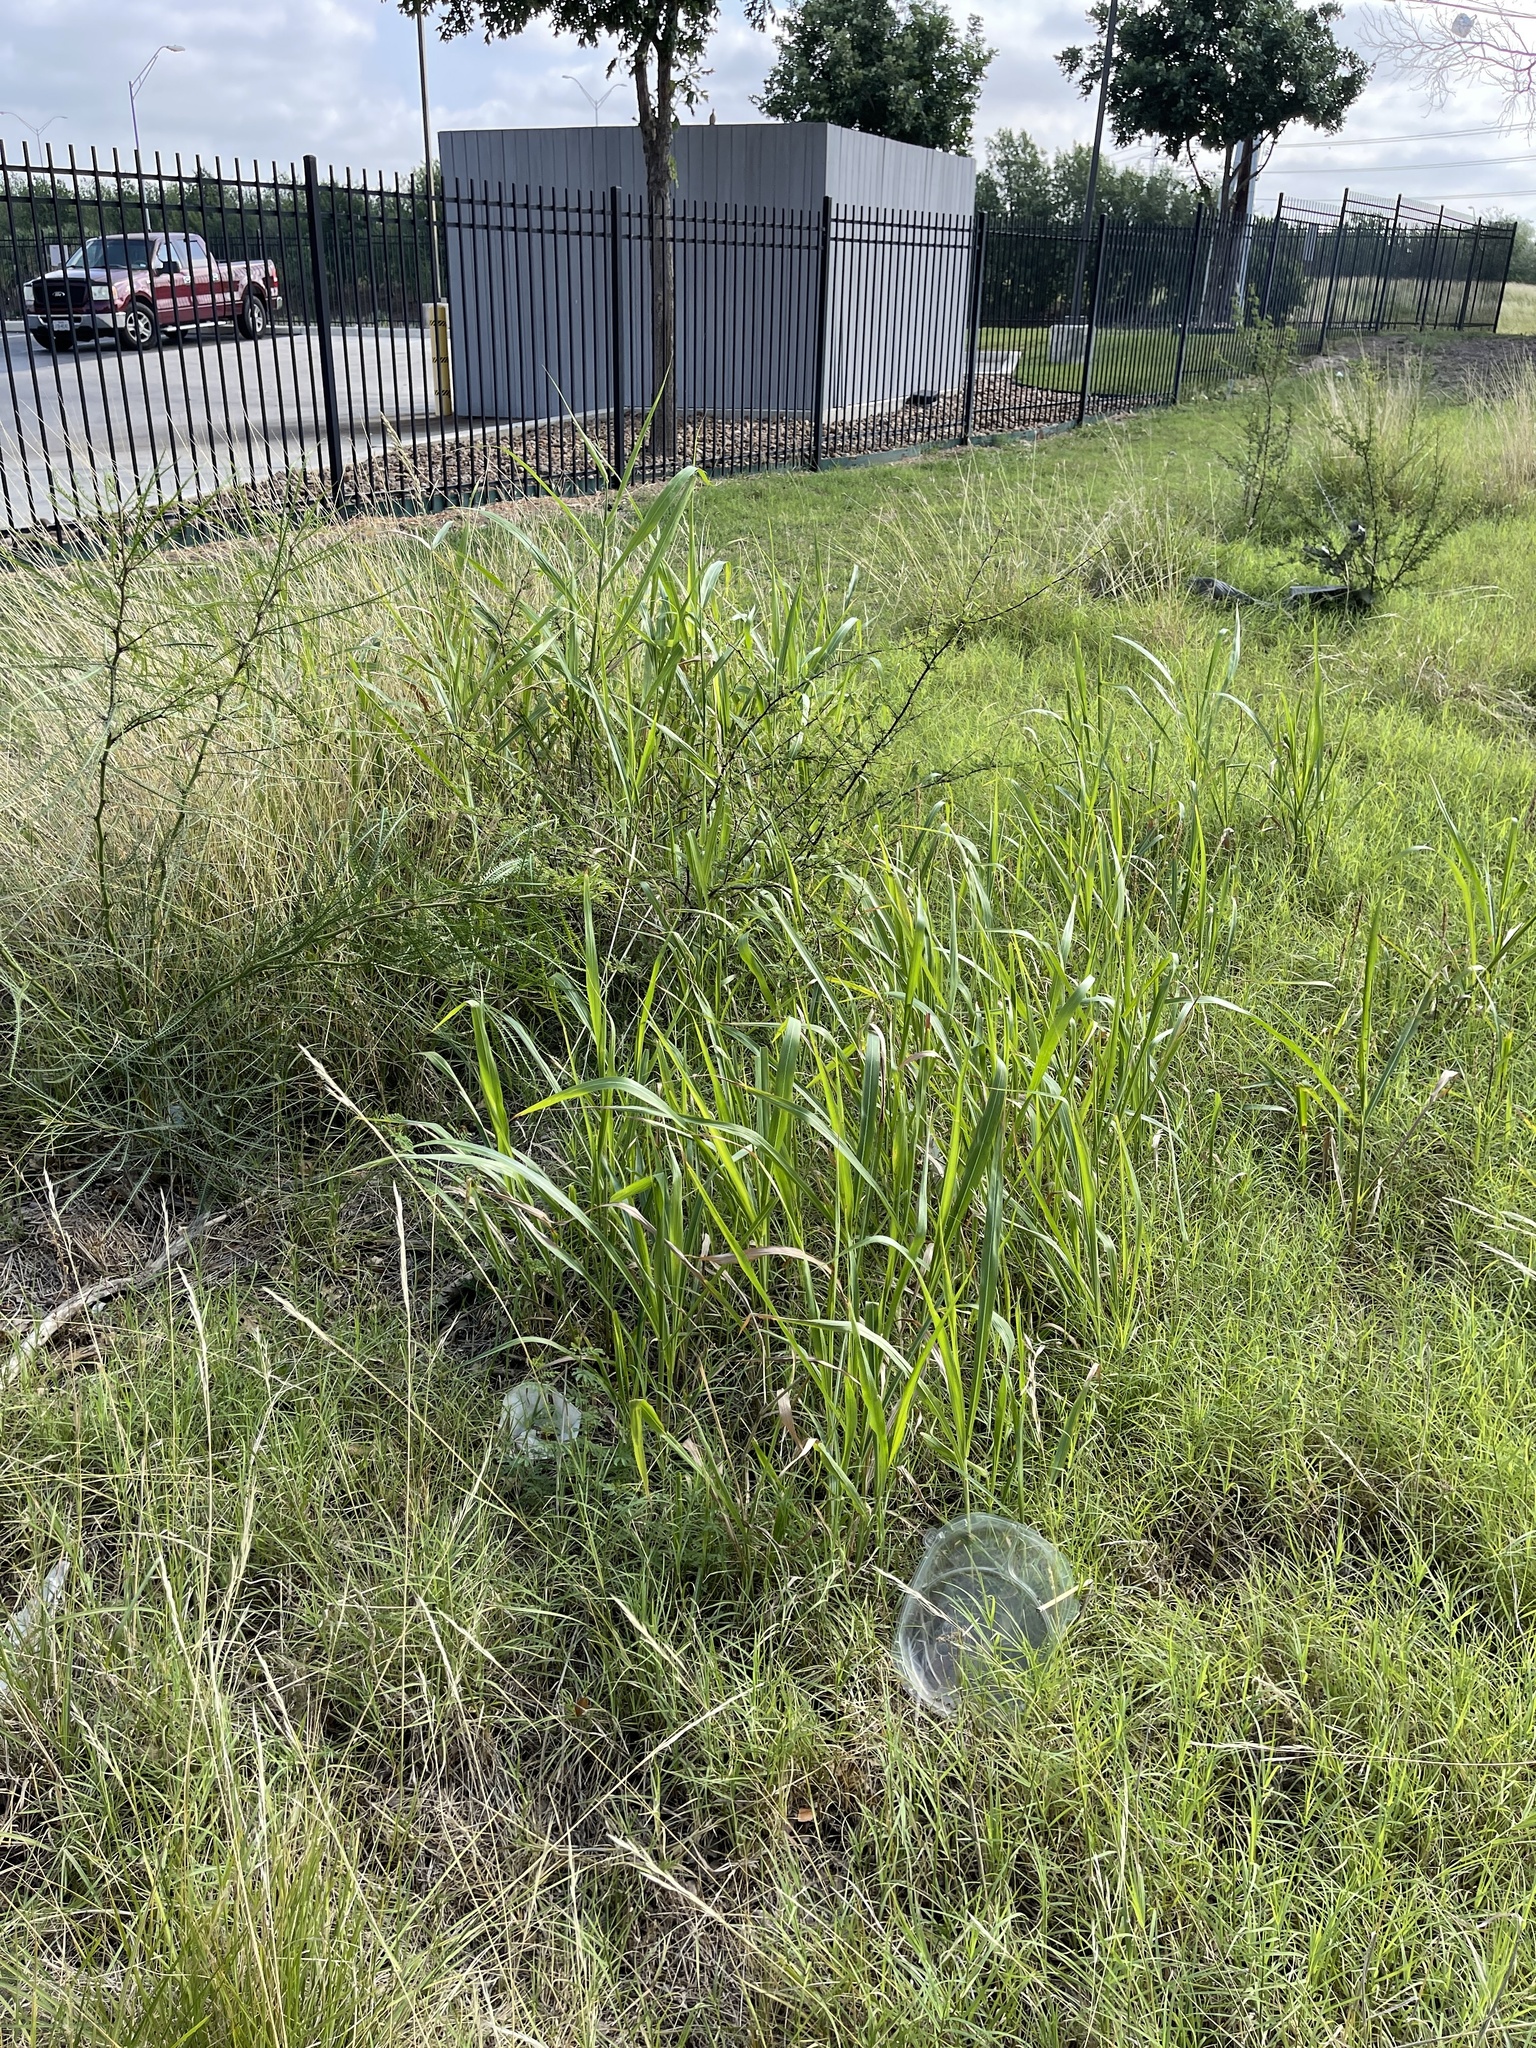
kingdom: Plantae
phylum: Tracheophyta
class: Liliopsida
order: Poales
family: Poaceae
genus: Sorghum
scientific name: Sorghum halepense
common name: Johnson-grass
